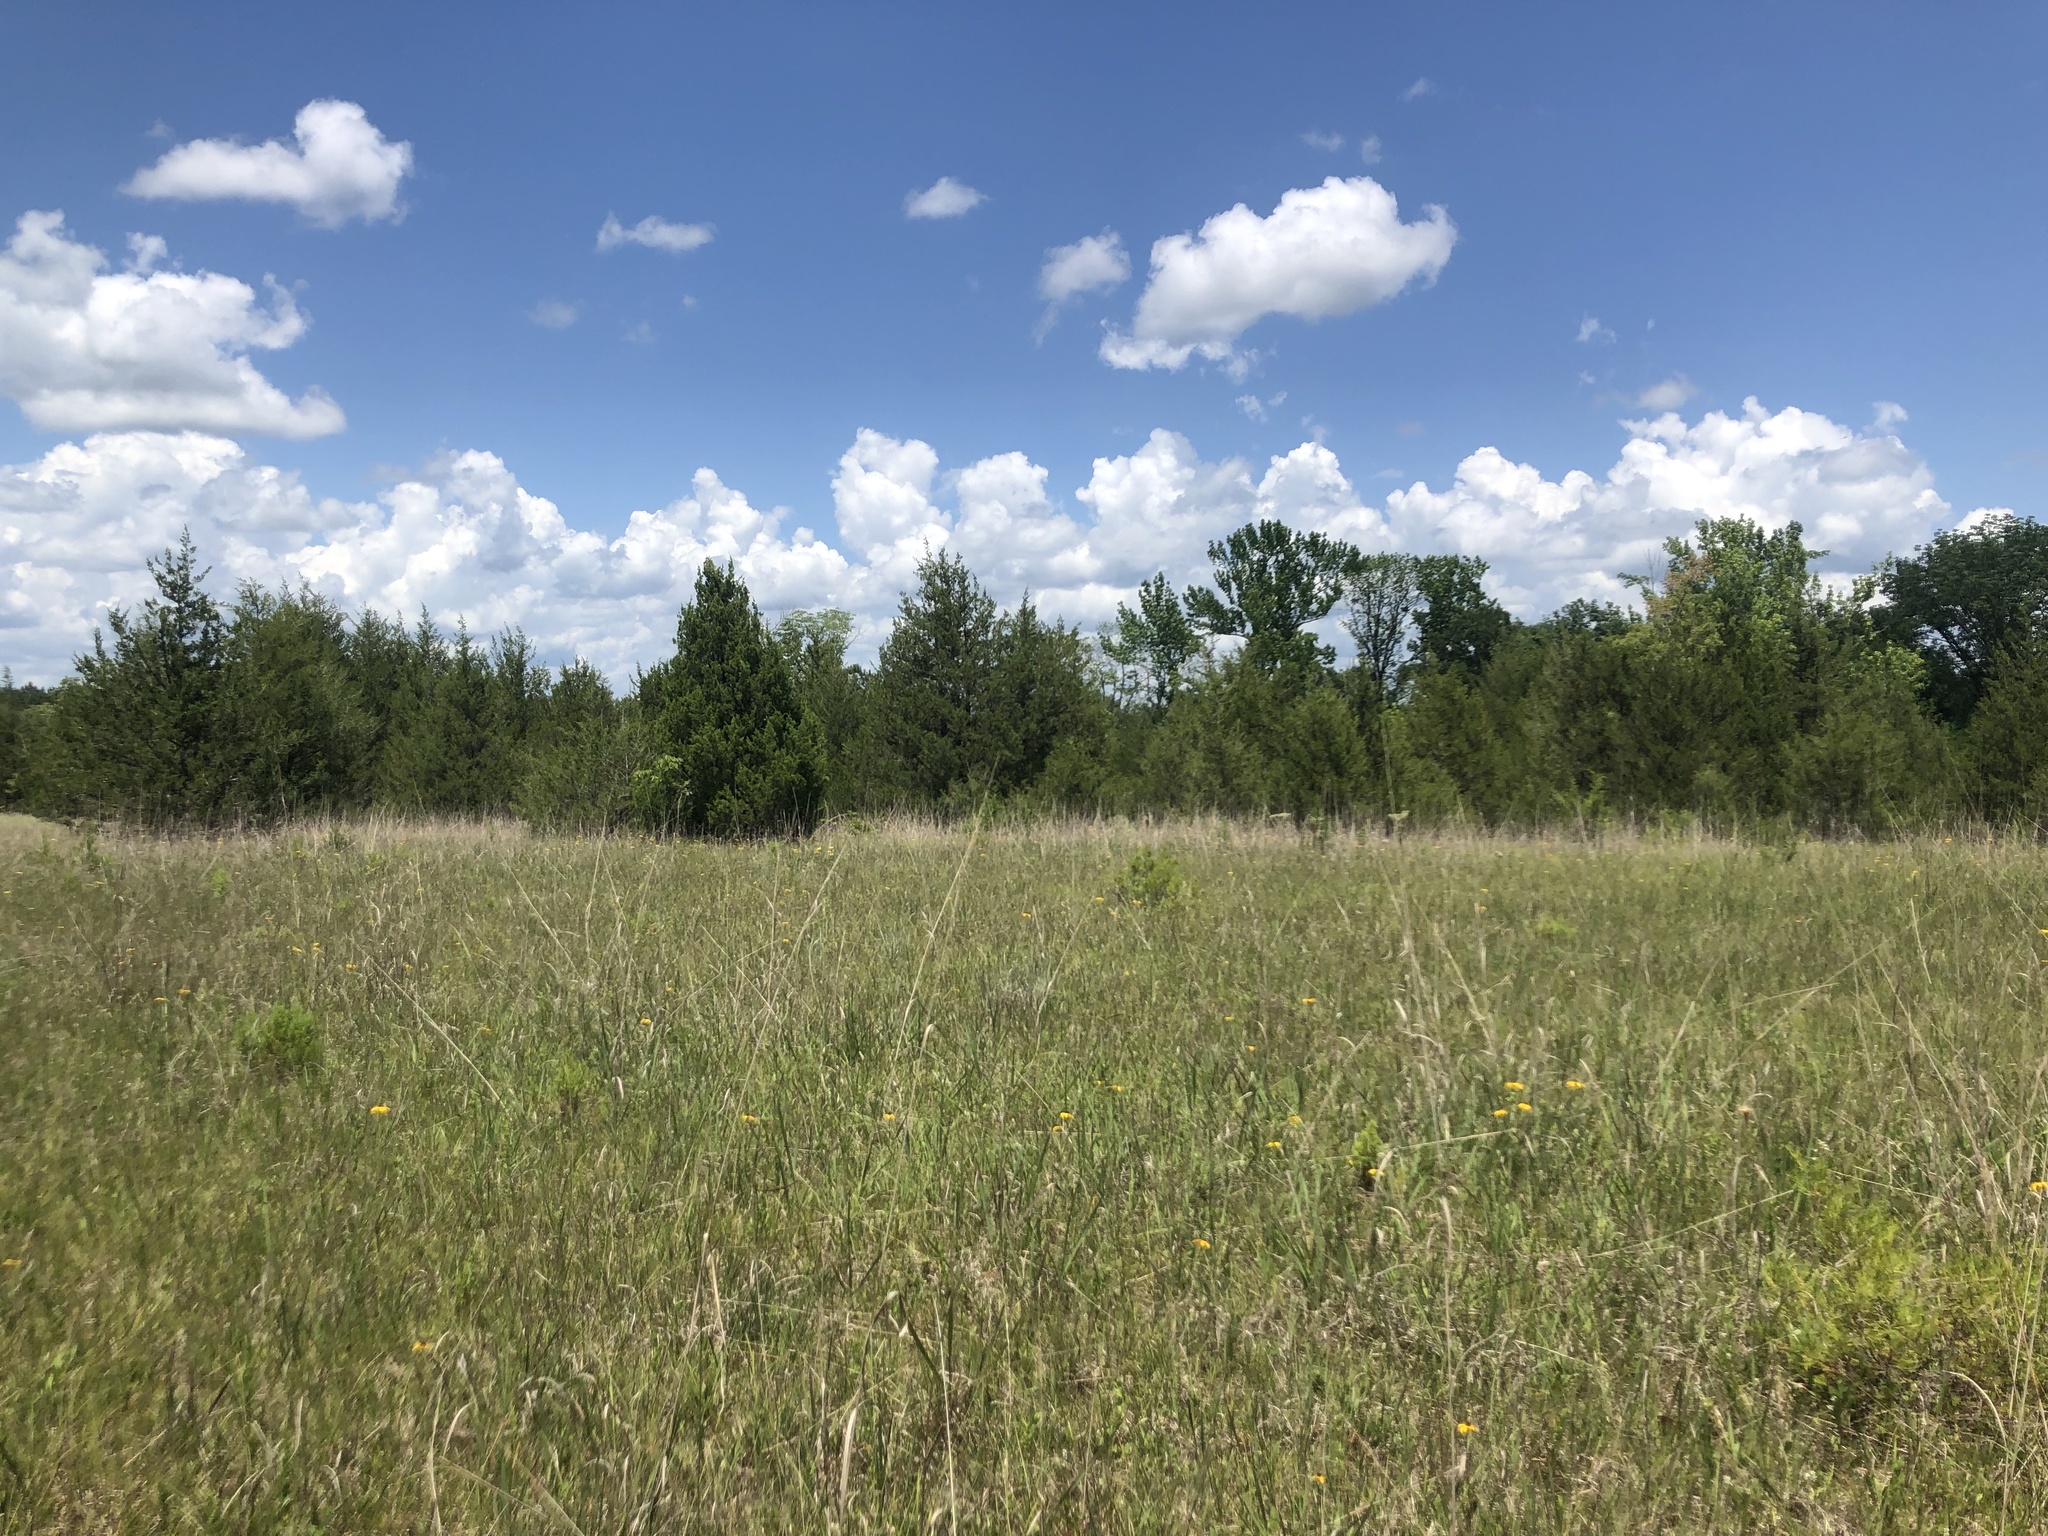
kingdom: Plantae
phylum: Tracheophyta
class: Liliopsida
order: Poales
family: Poaceae
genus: Sorghastrum
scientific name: Sorghastrum nutans
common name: Indian grass
